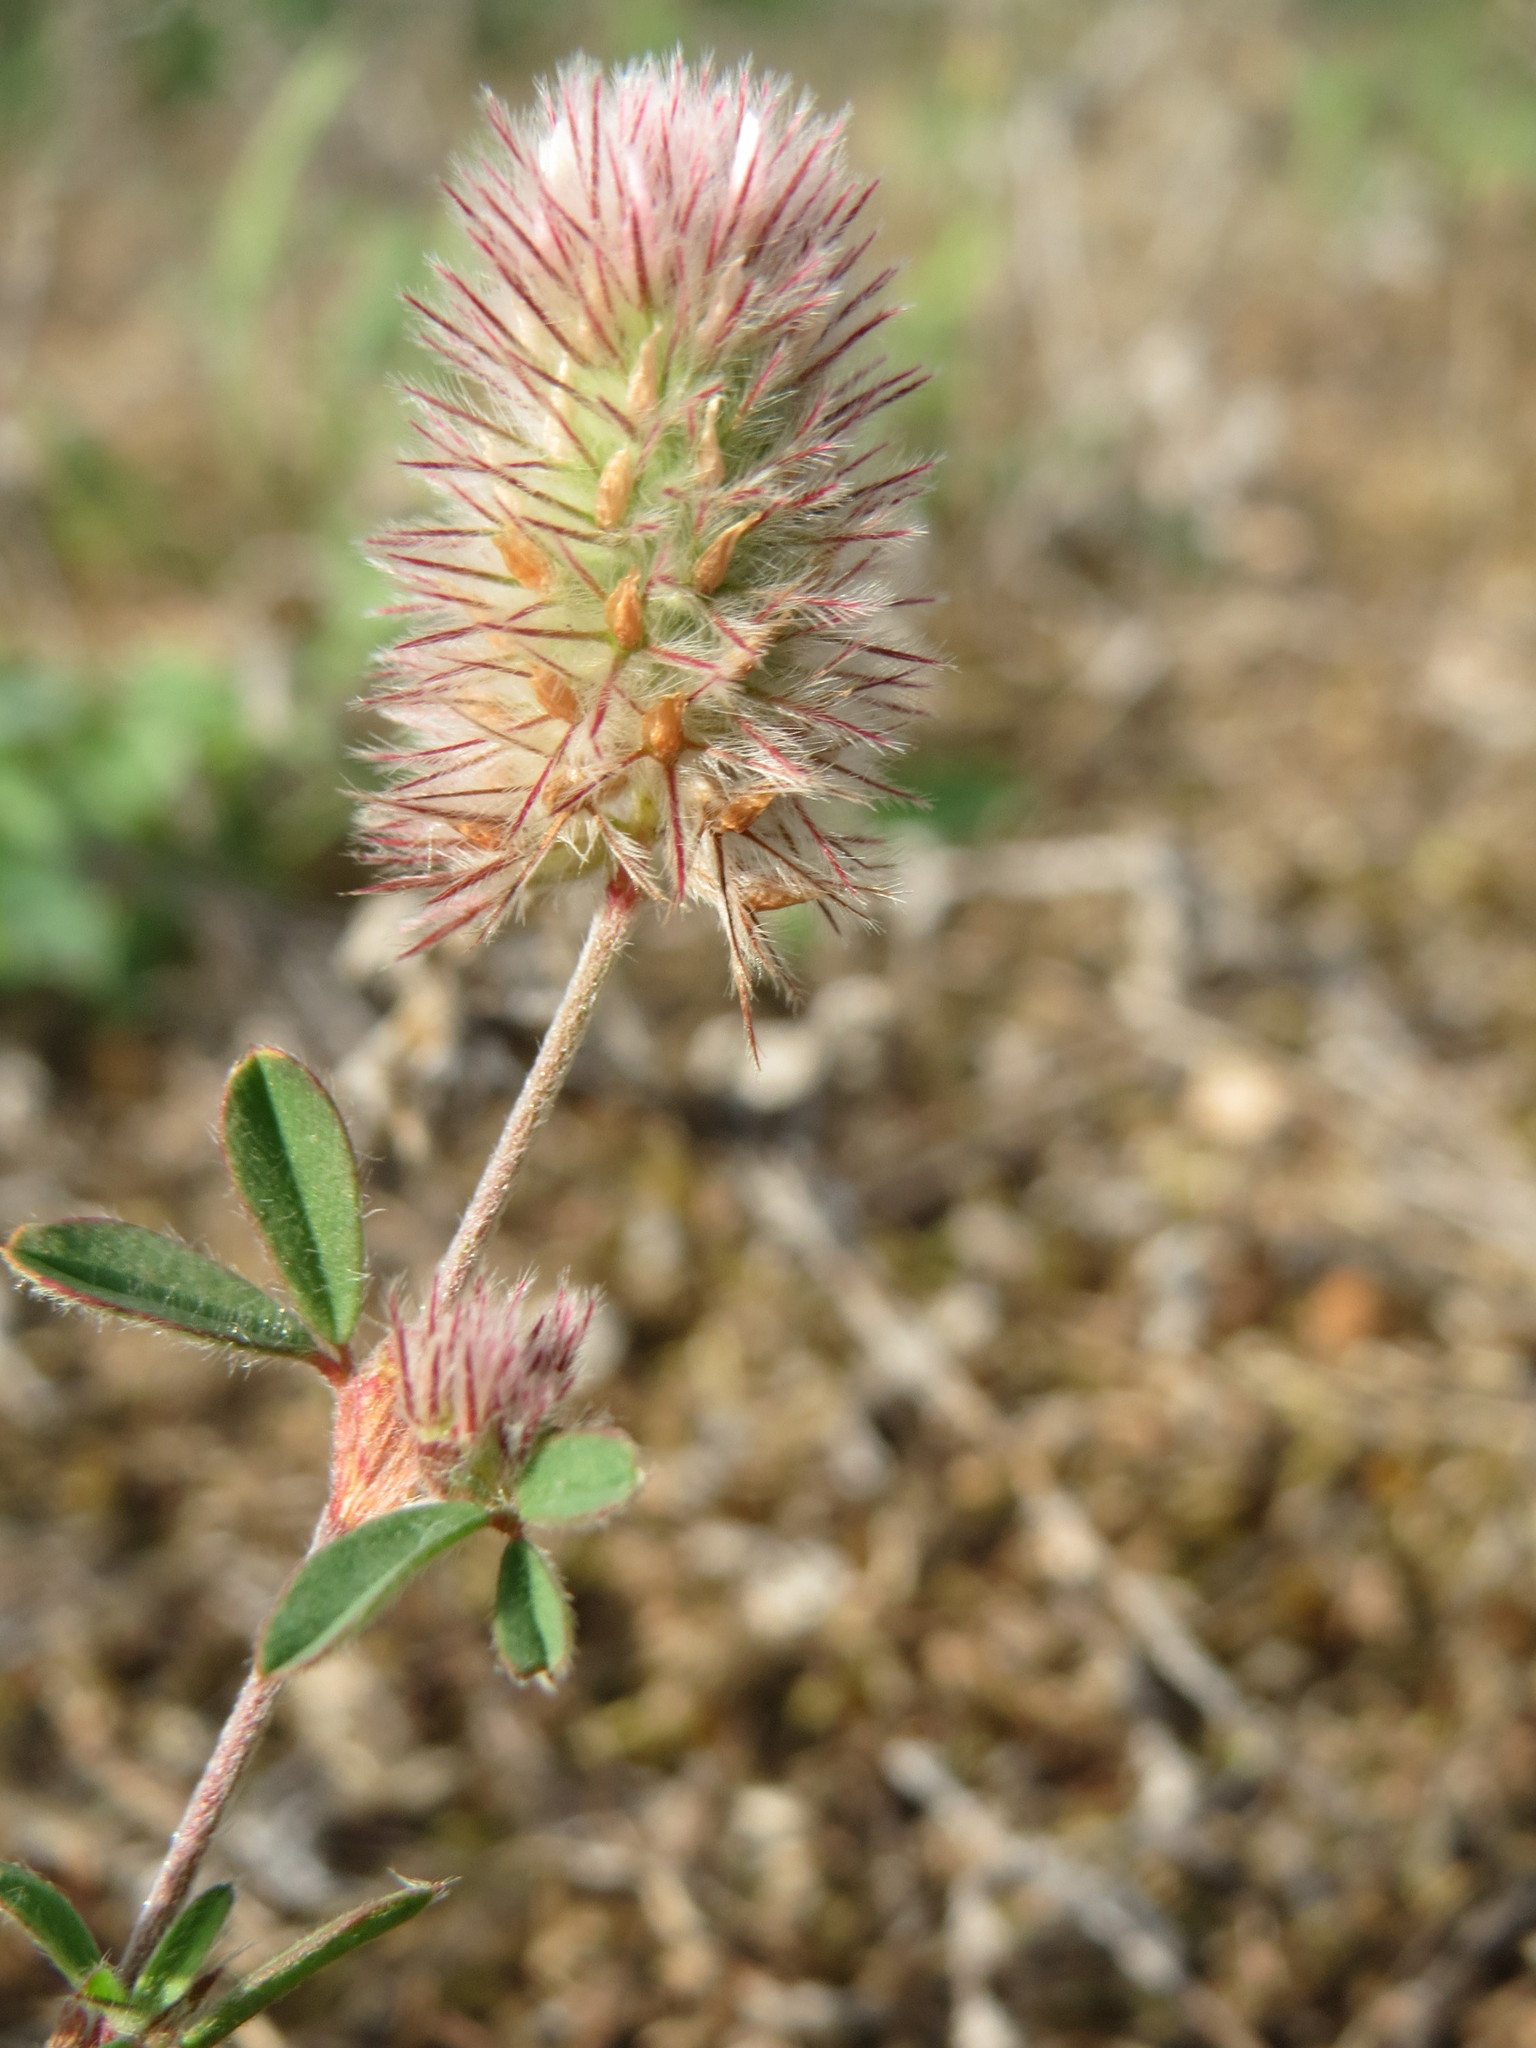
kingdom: Plantae
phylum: Tracheophyta
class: Magnoliopsida
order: Fabales
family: Fabaceae
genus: Trifolium
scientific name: Trifolium arvense
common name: Hare's-foot clover
